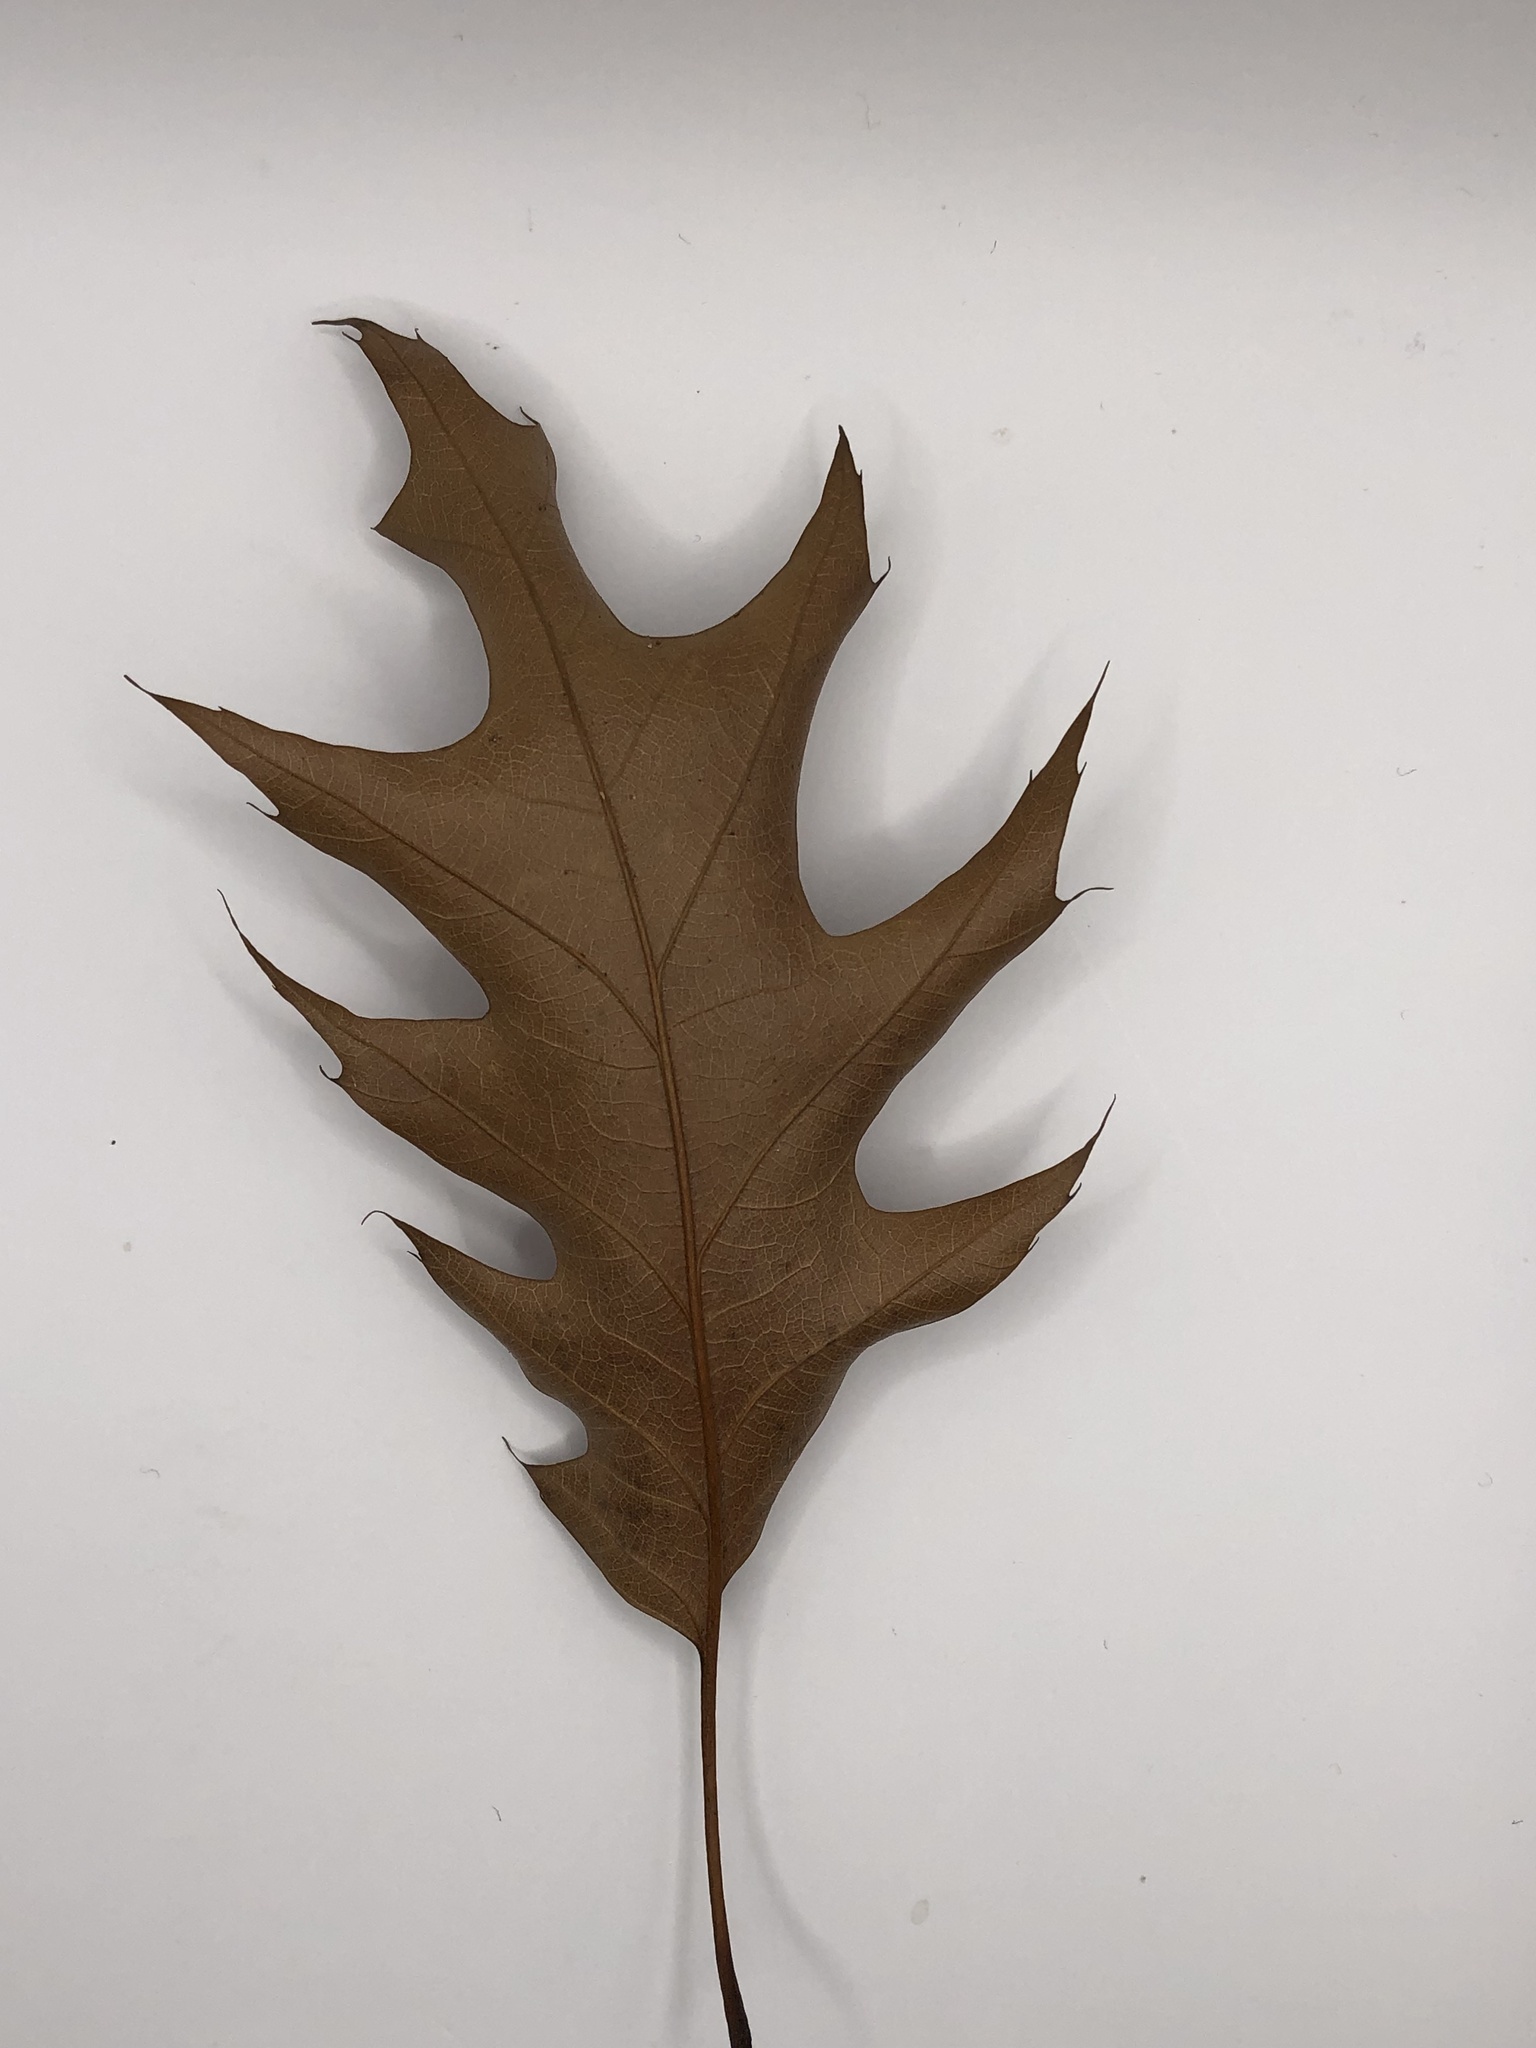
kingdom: Plantae
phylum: Tracheophyta
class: Magnoliopsida
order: Fagales
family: Fagaceae
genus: Quercus
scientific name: Quercus rubra
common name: Red oak
